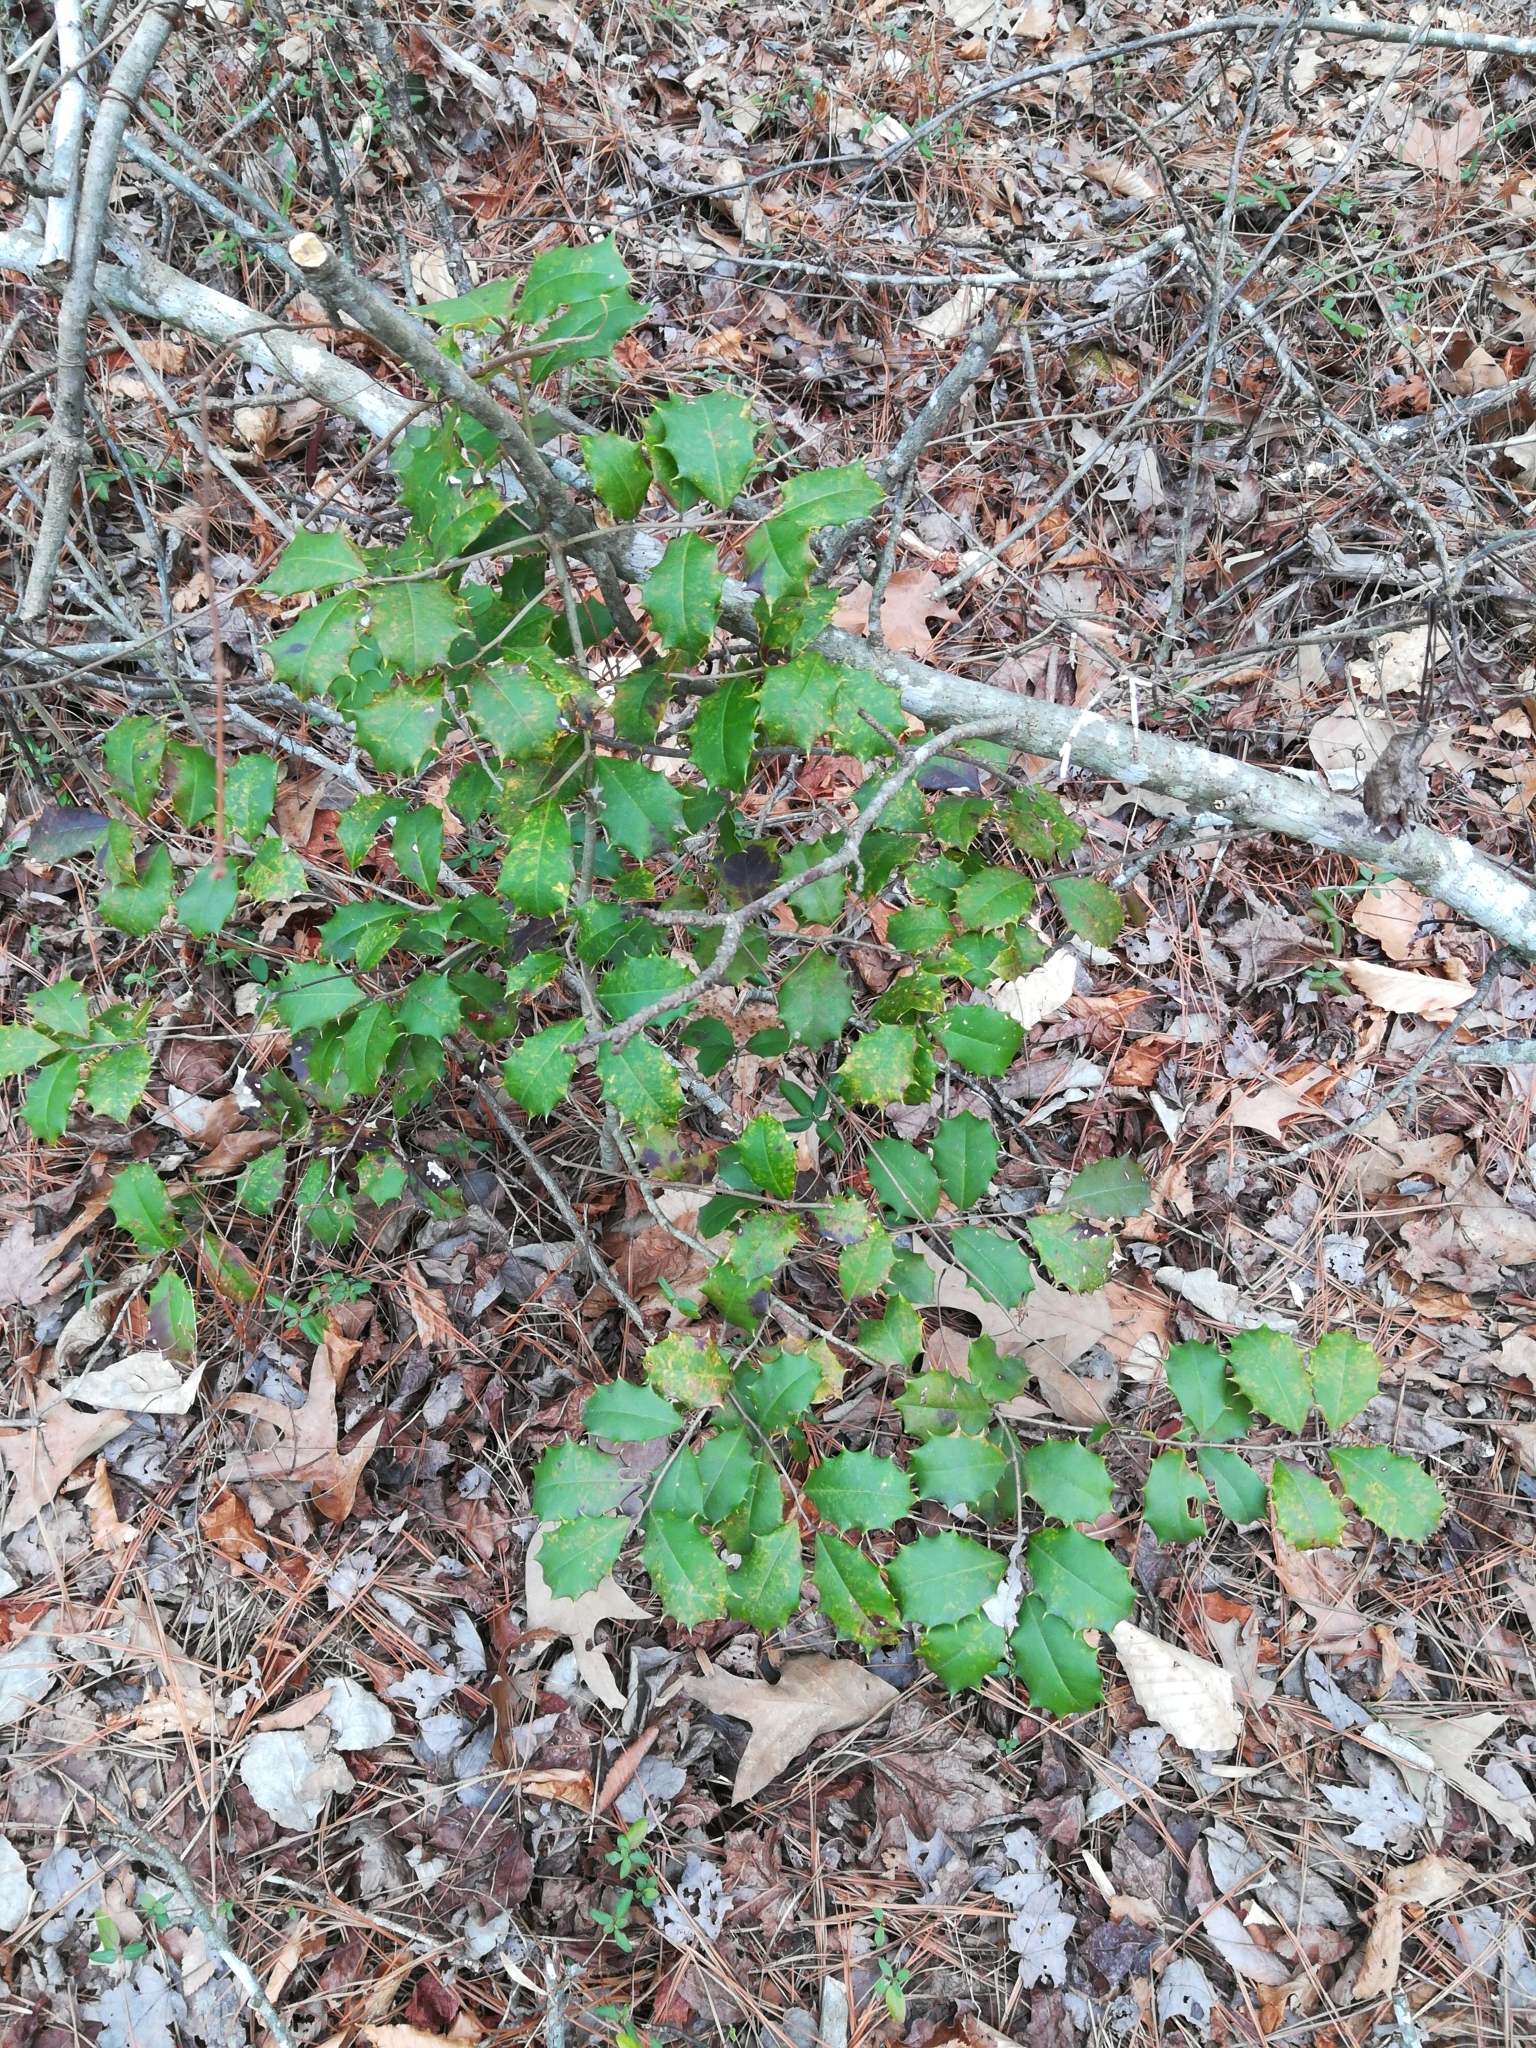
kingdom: Plantae
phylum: Tracheophyta
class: Magnoliopsida
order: Aquifoliales
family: Aquifoliaceae
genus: Ilex
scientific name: Ilex opaca
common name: American holly
